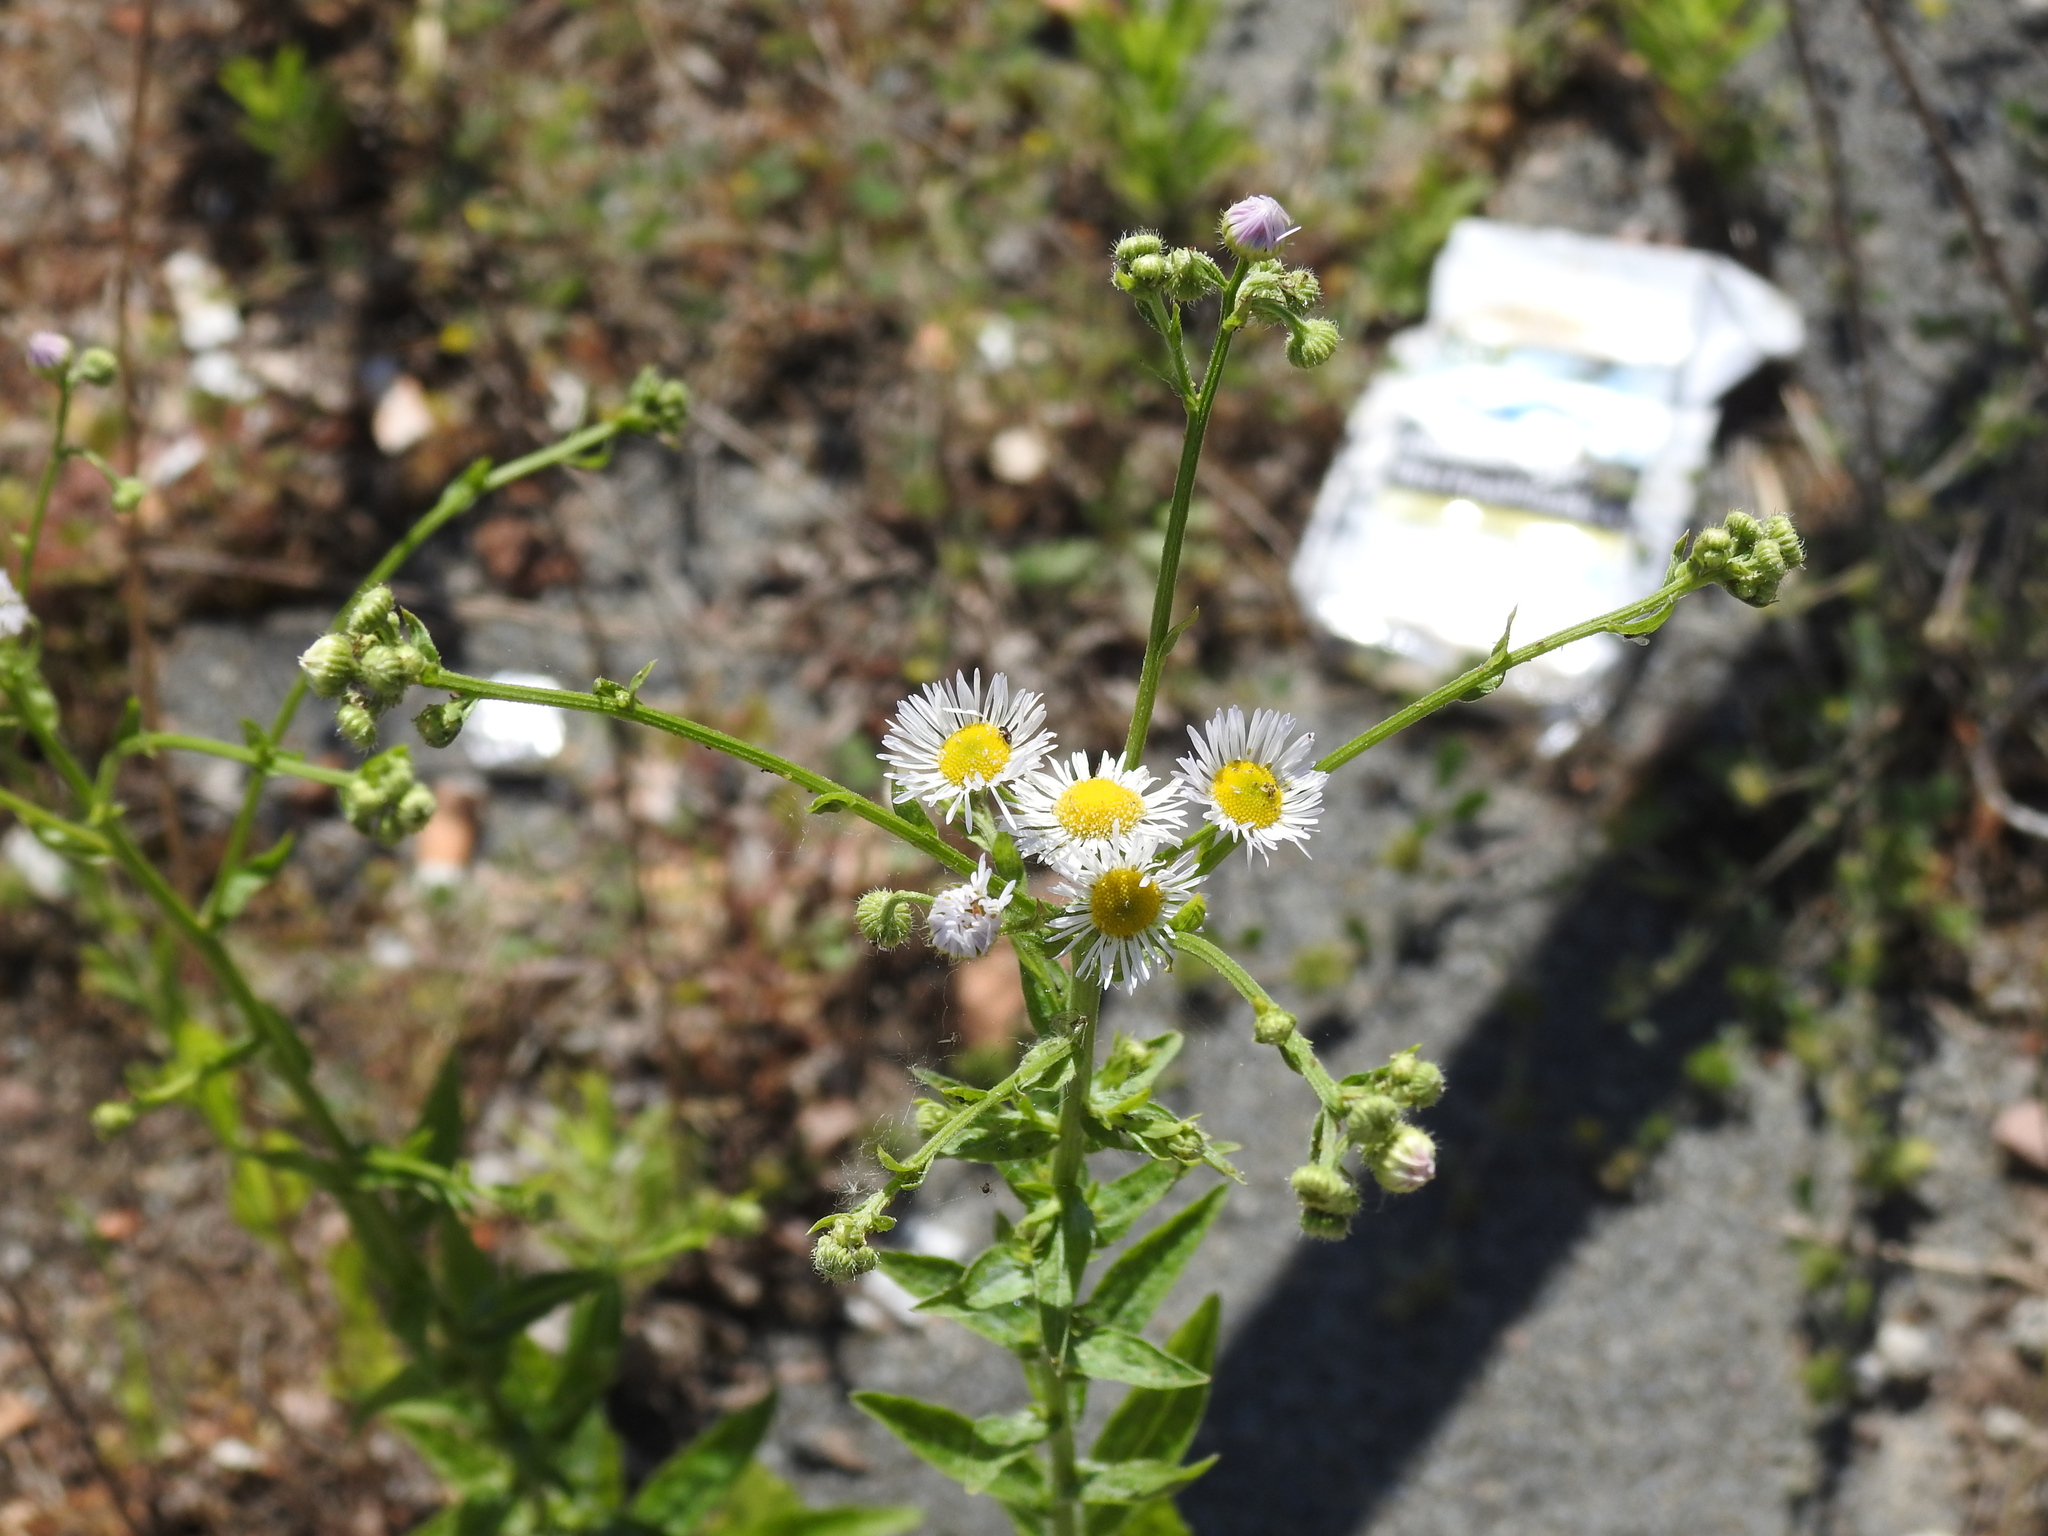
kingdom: Plantae
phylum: Tracheophyta
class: Magnoliopsida
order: Asterales
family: Asteraceae
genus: Erigeron
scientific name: Erigeron annuus
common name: Tall fleabane
